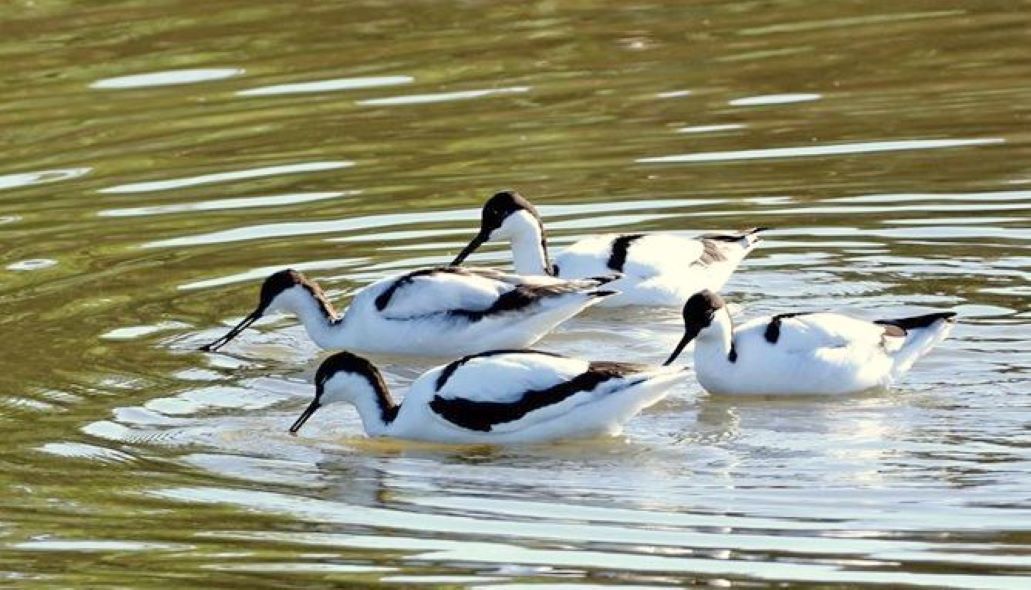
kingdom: Animalia
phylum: Chordata
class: Aves
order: Charadriiformes
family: Recurvirostridae
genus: Recurvirostra
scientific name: Recurvirostra avosetta
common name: Pied avocet
